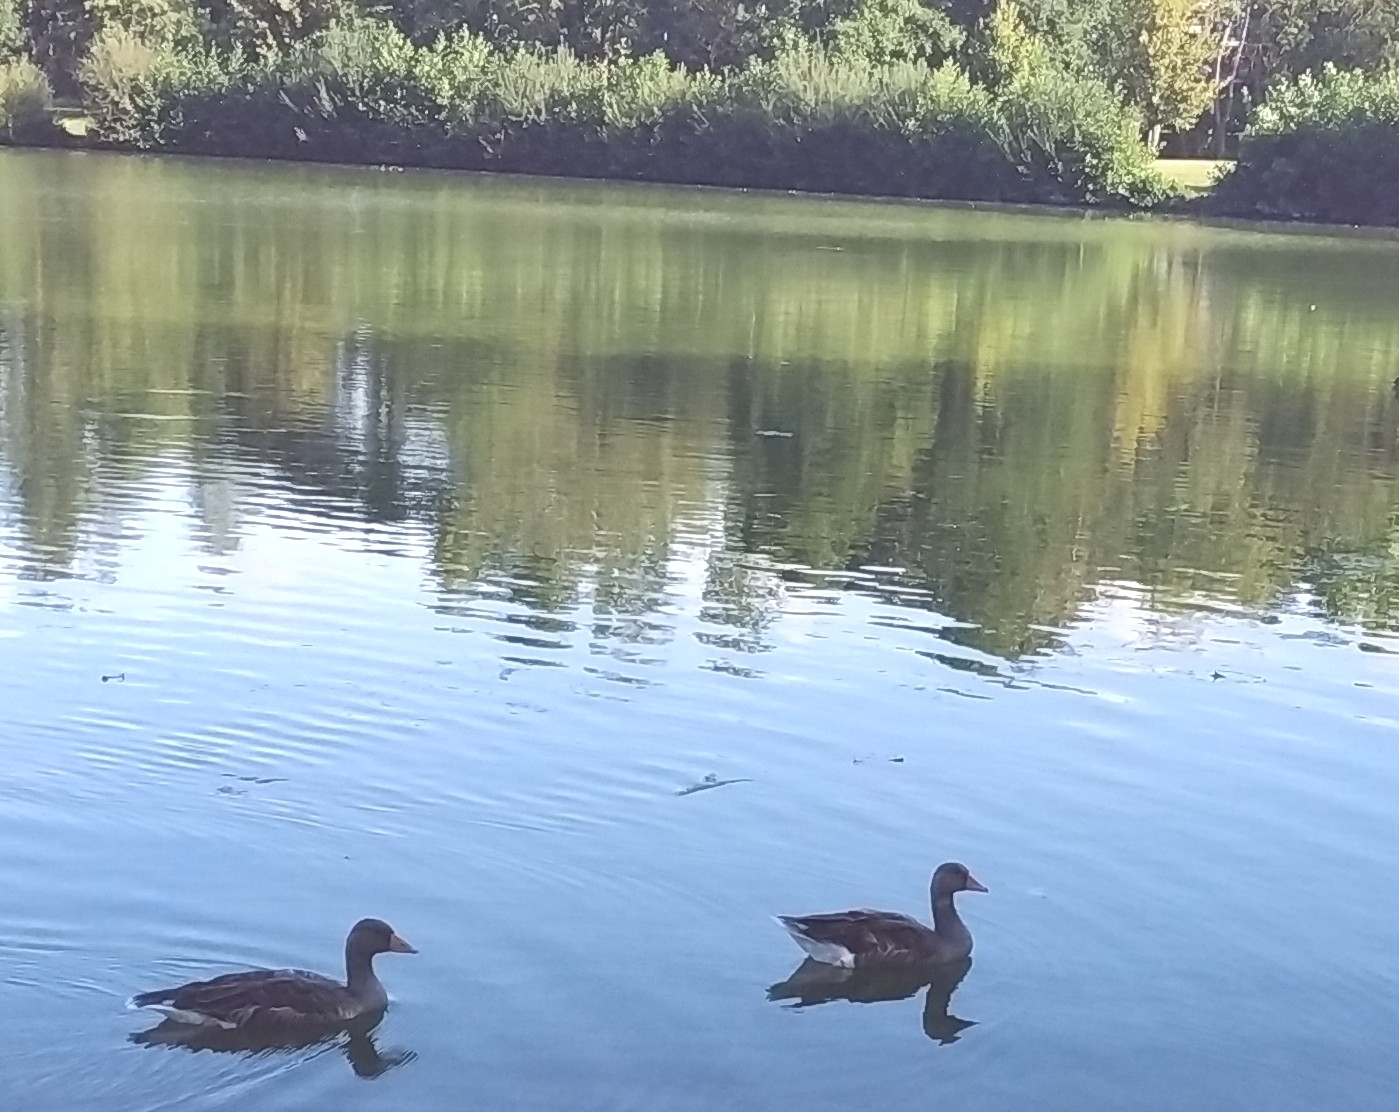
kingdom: Animalia
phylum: Chordata
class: Aves
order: Anseriformes
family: Anatidae
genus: Anser
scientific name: Anser anser
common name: Greylag goose
